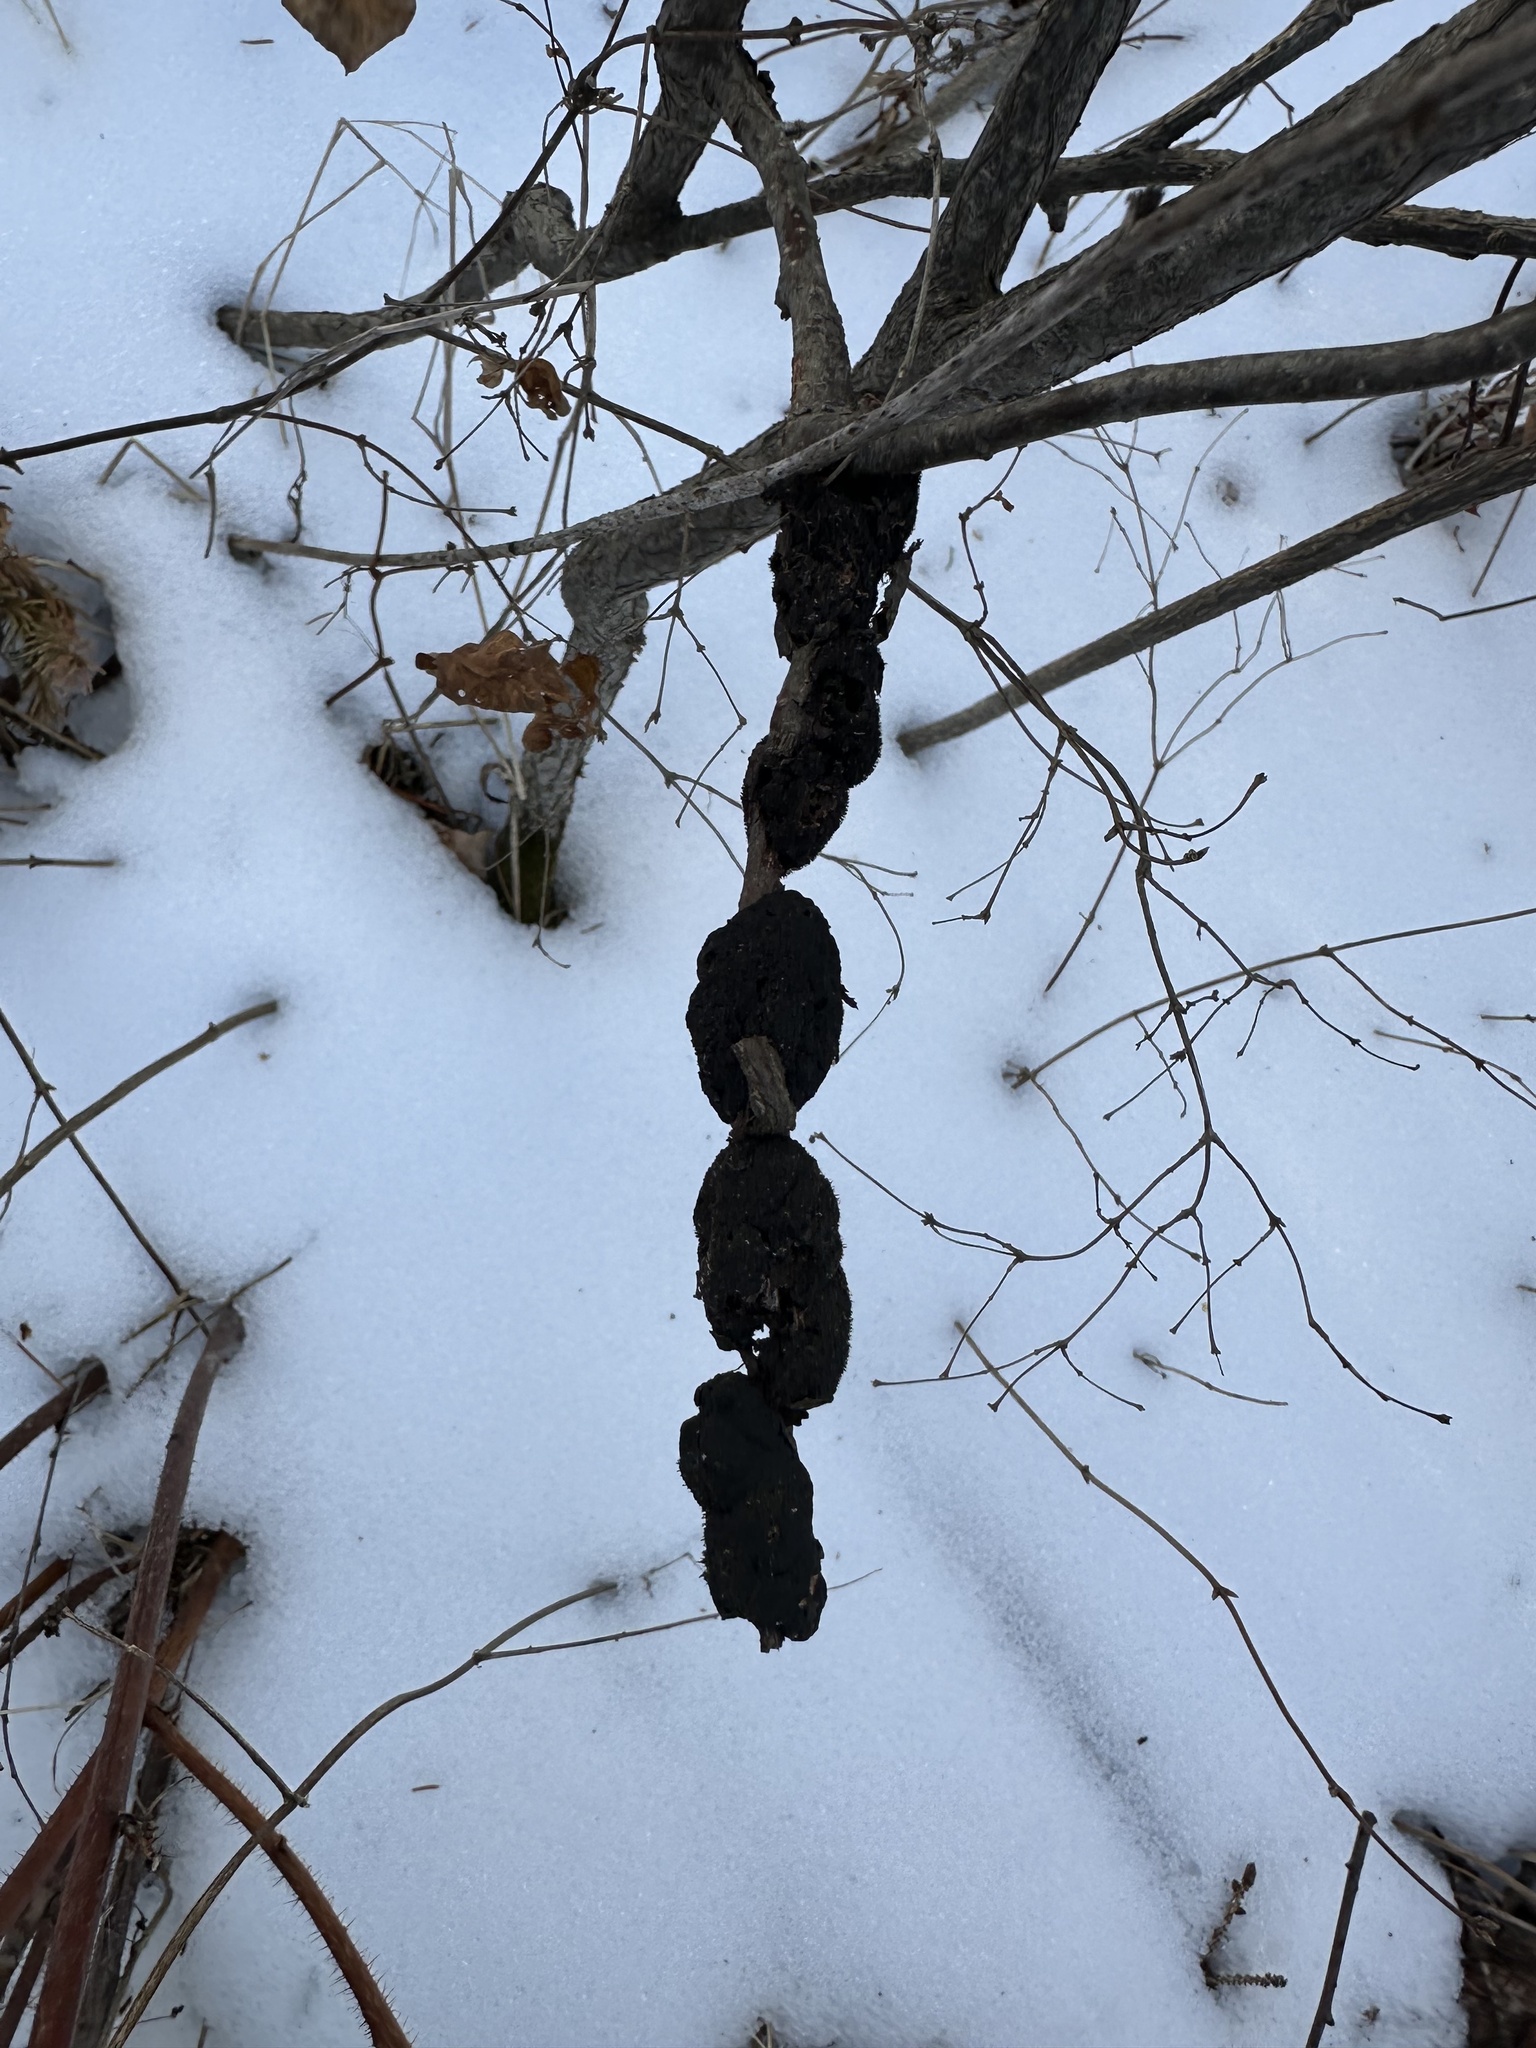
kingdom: Fungi
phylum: Ascomycota
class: Dothideomycetes
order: Venturiales
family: Venturiaceae
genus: Apiosporina
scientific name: Apiosporina morbosa
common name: Black knot
